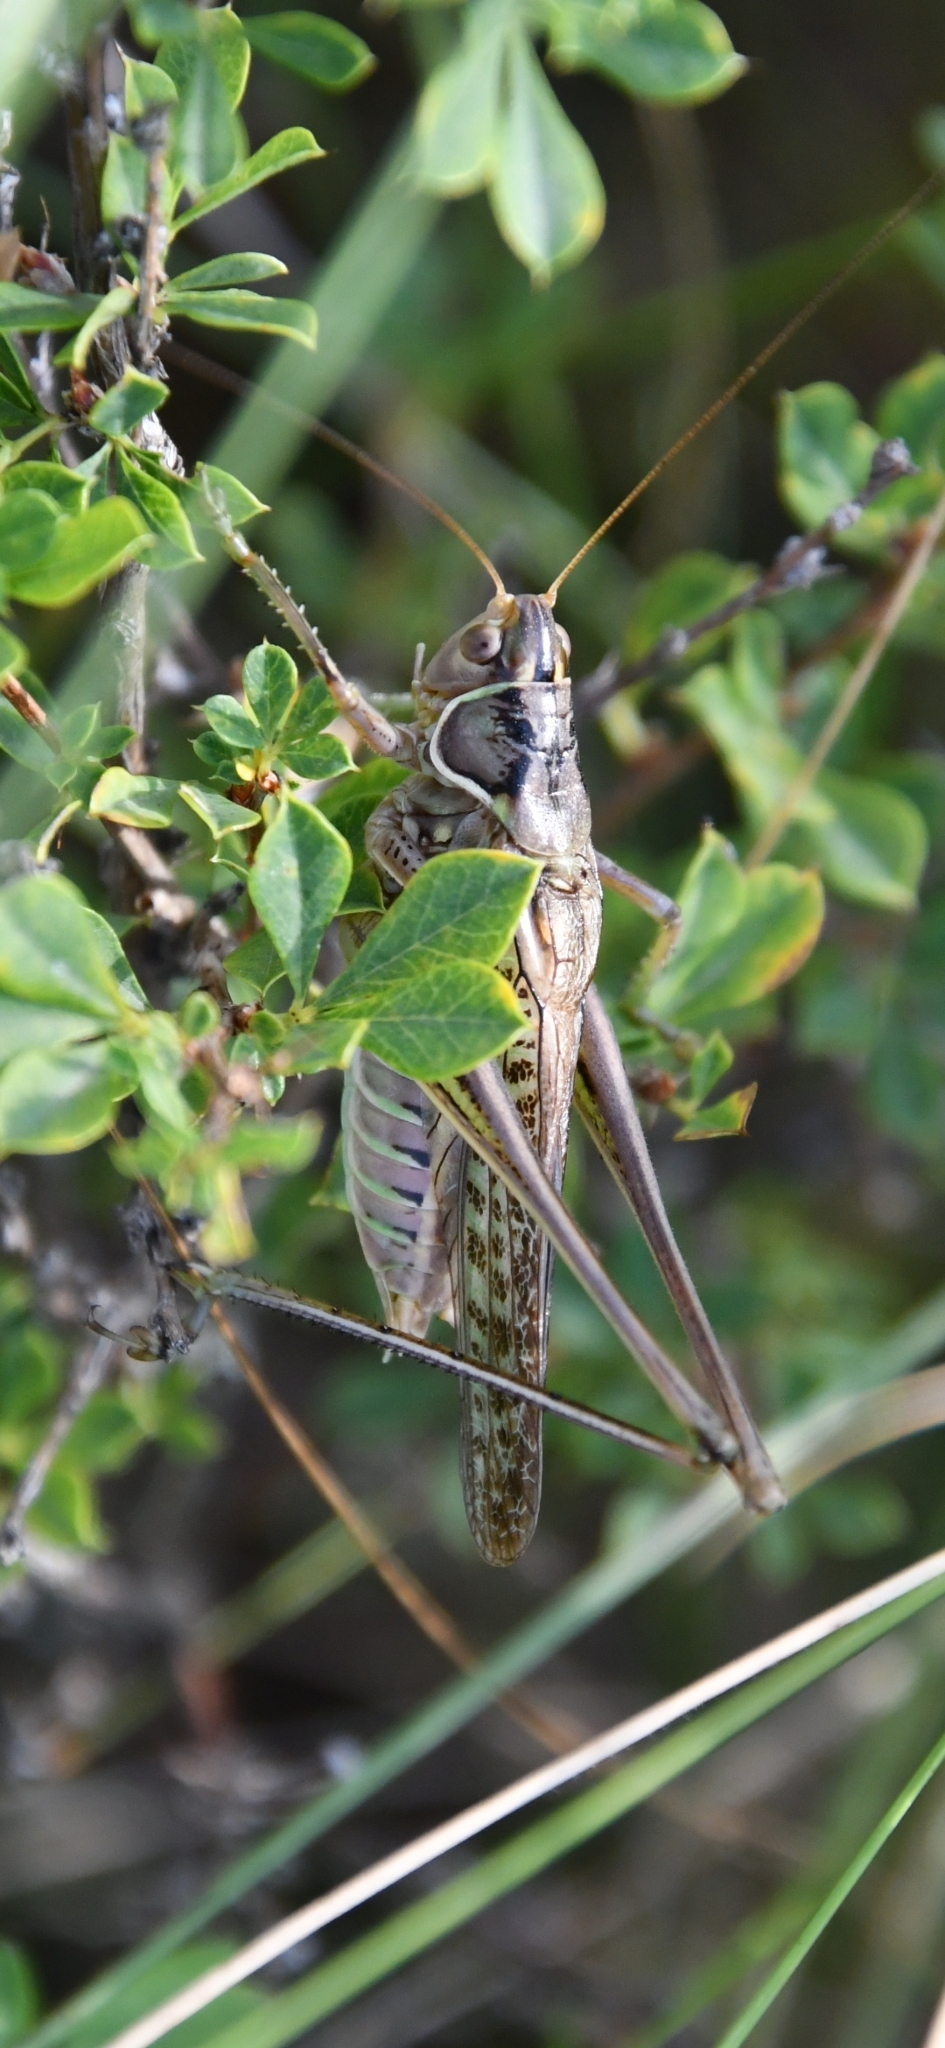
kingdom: Animalia
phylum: Arthropoda
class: Insecta
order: Orthoptera
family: Tettigoniidae
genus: Gampsocleis
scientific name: Gampsocleis glabra
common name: Heath bushcricket
